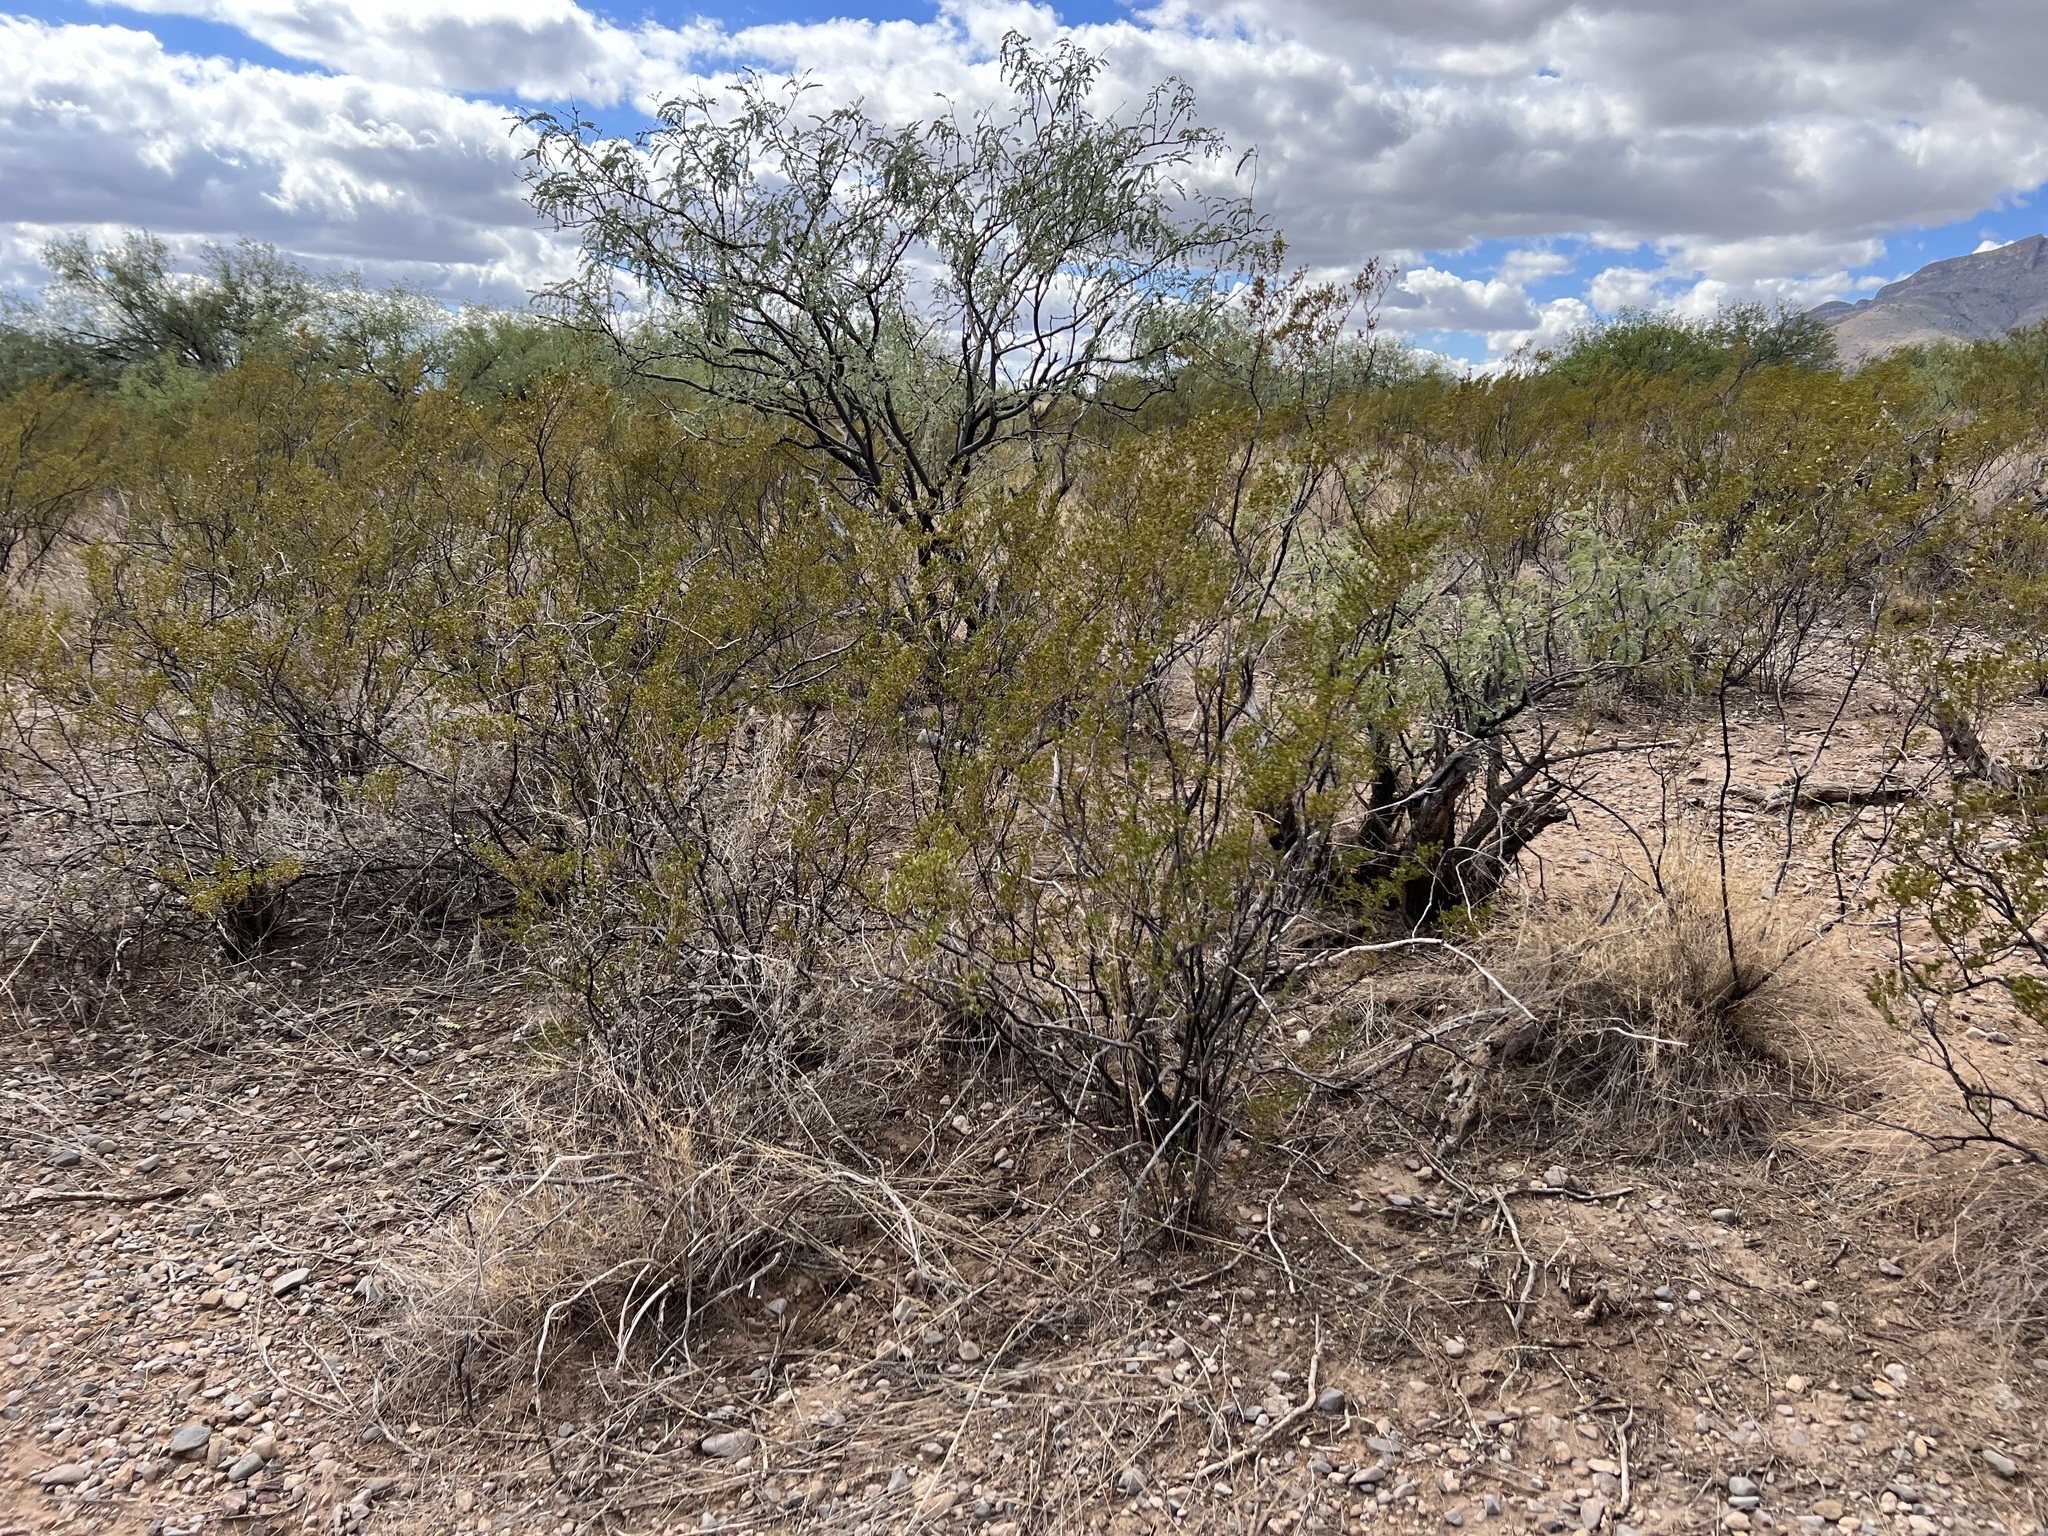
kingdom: Plantae
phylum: Tracheophyta
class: Magnoliopsida
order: Zygophyllales
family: Zygophyllaceae
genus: Larrea
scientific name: Larrea tridentata
